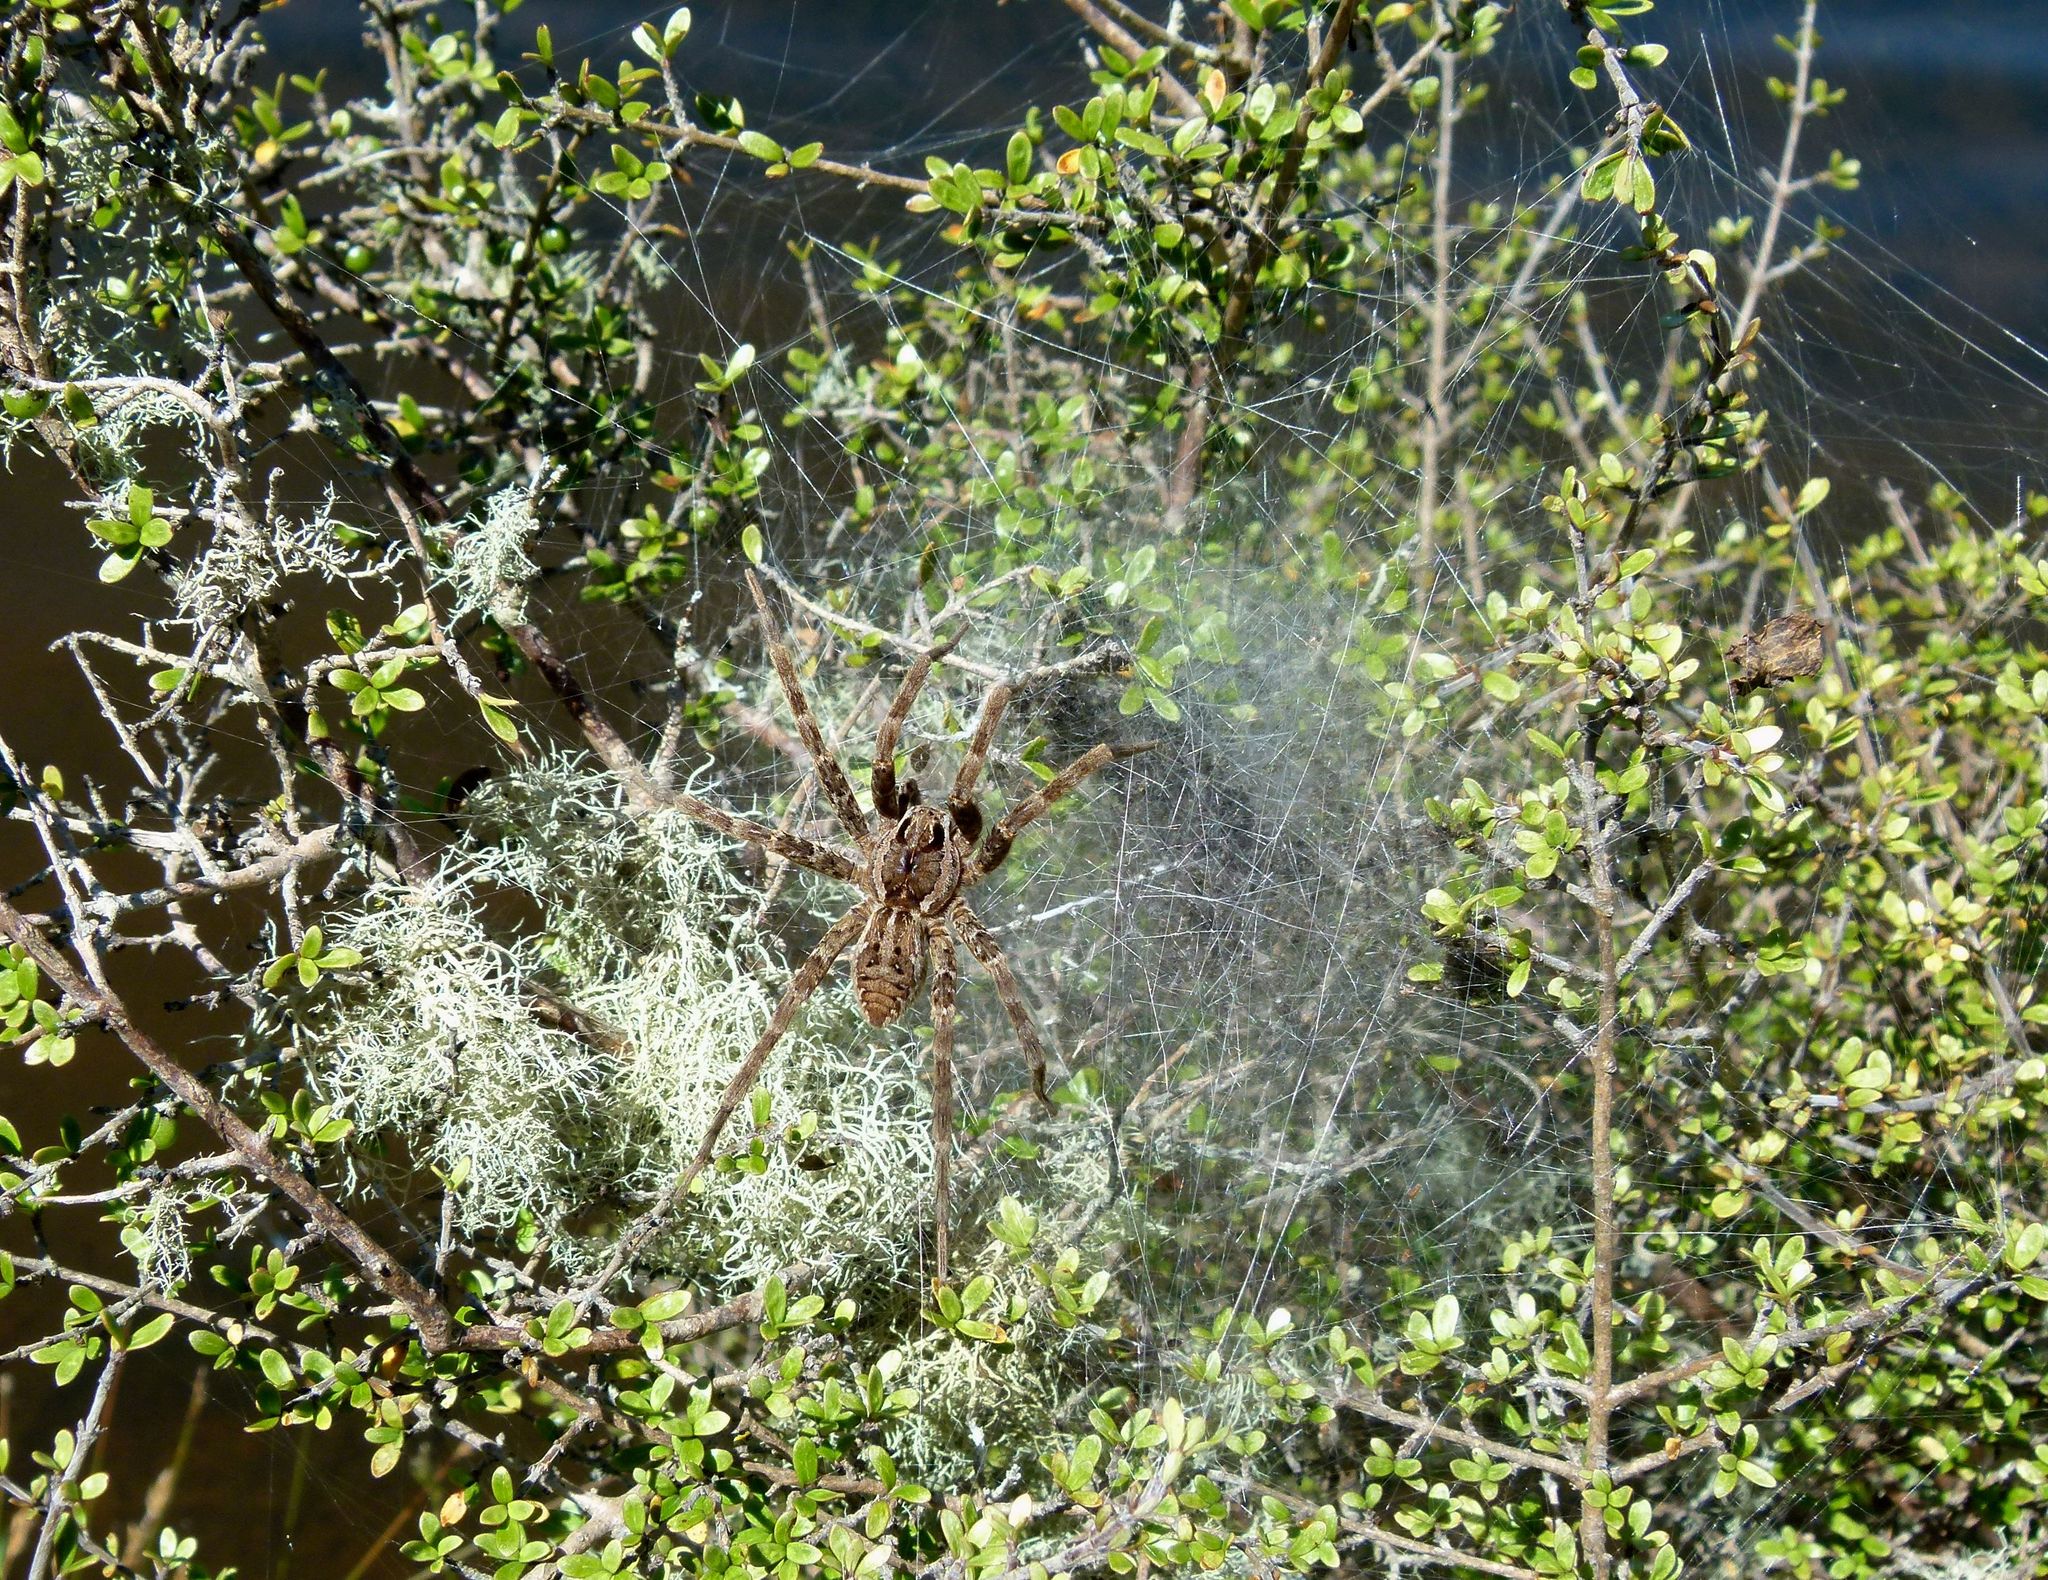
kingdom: Animalia
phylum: Arthropoda
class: Arachnida
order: Araneae
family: Pisauridae
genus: Dolomedes
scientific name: Dolomedes dondalei
